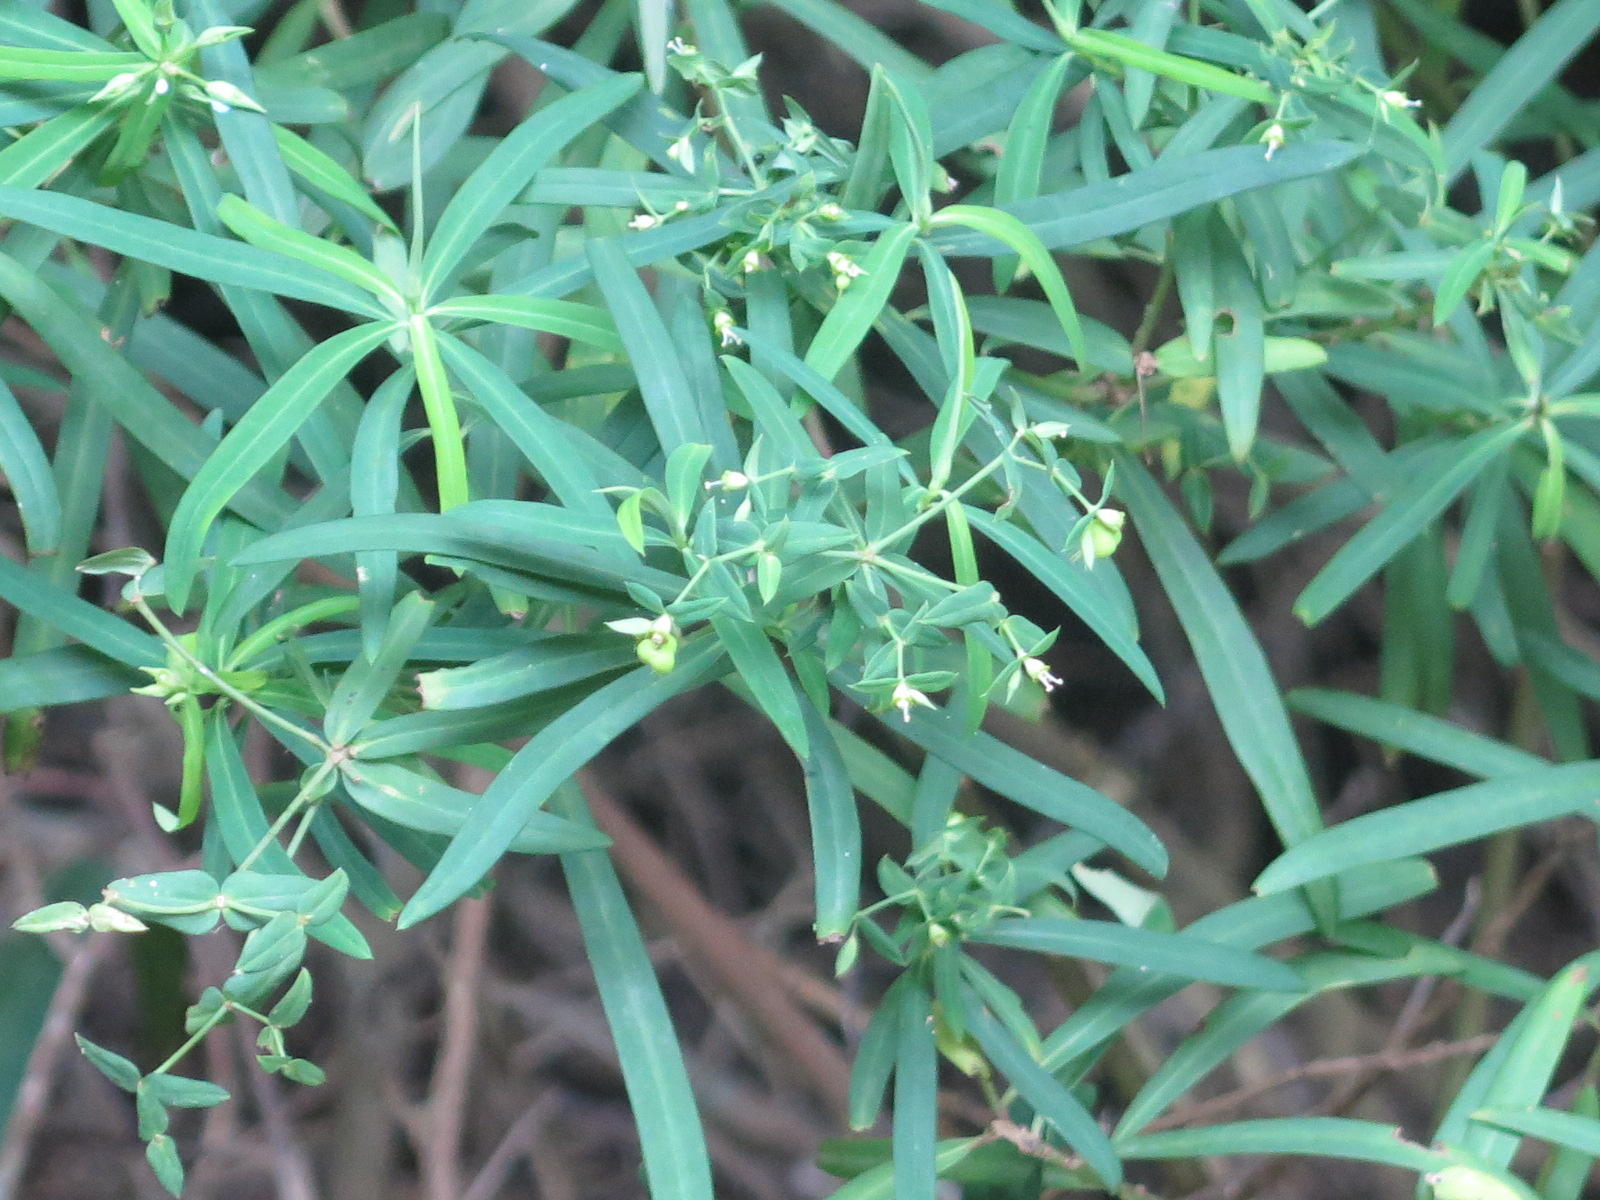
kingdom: Plantae
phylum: Tracheophyta
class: Magnoliopsida
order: Malpighiales
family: Euphorbiaceae
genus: Euphorbia
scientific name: Euphorbia kraussiana
